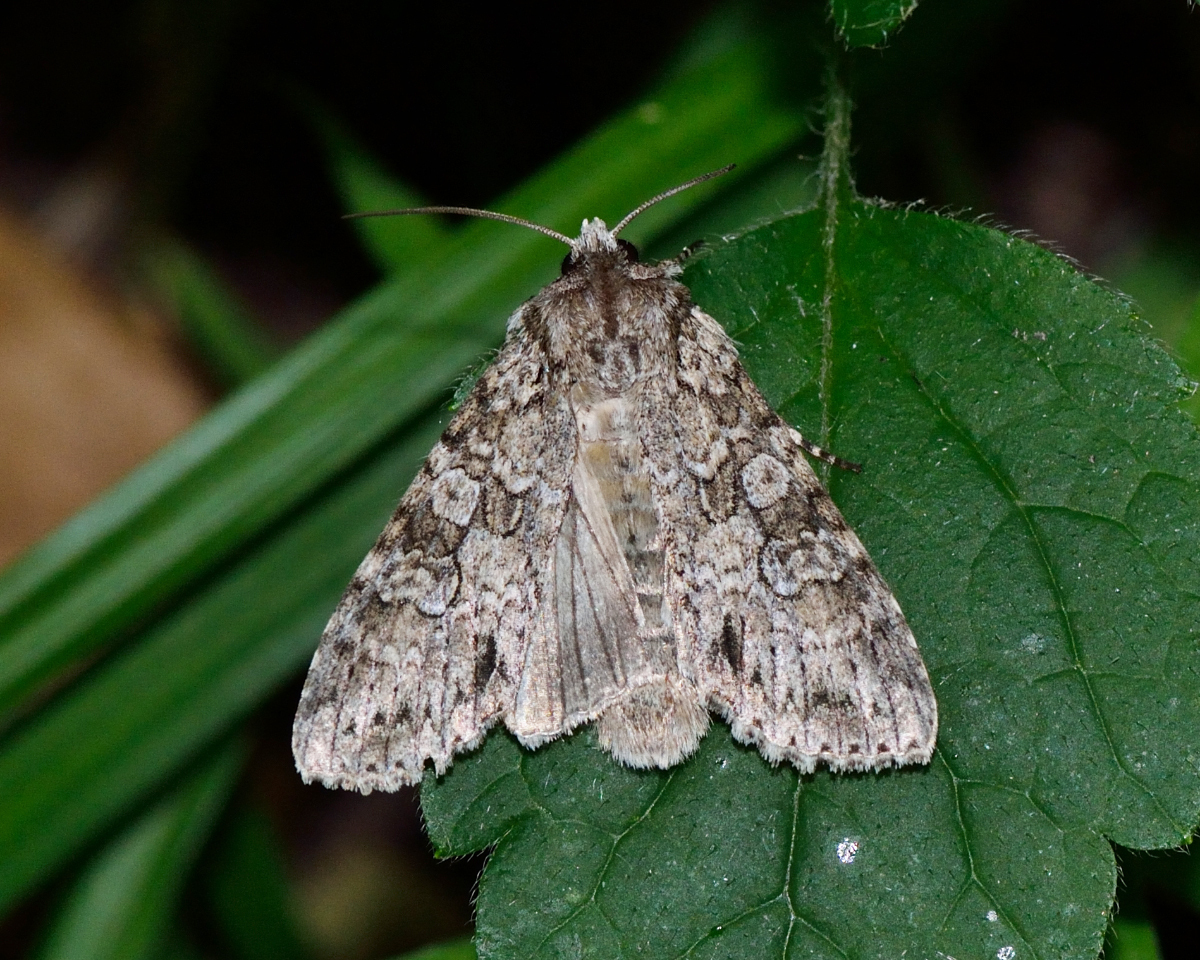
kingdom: Animalia
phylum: Arthropoda
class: Insecta
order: Lepidoptera
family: Noctuidae
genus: Polia
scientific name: Polia nebulosa
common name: Grey arches
